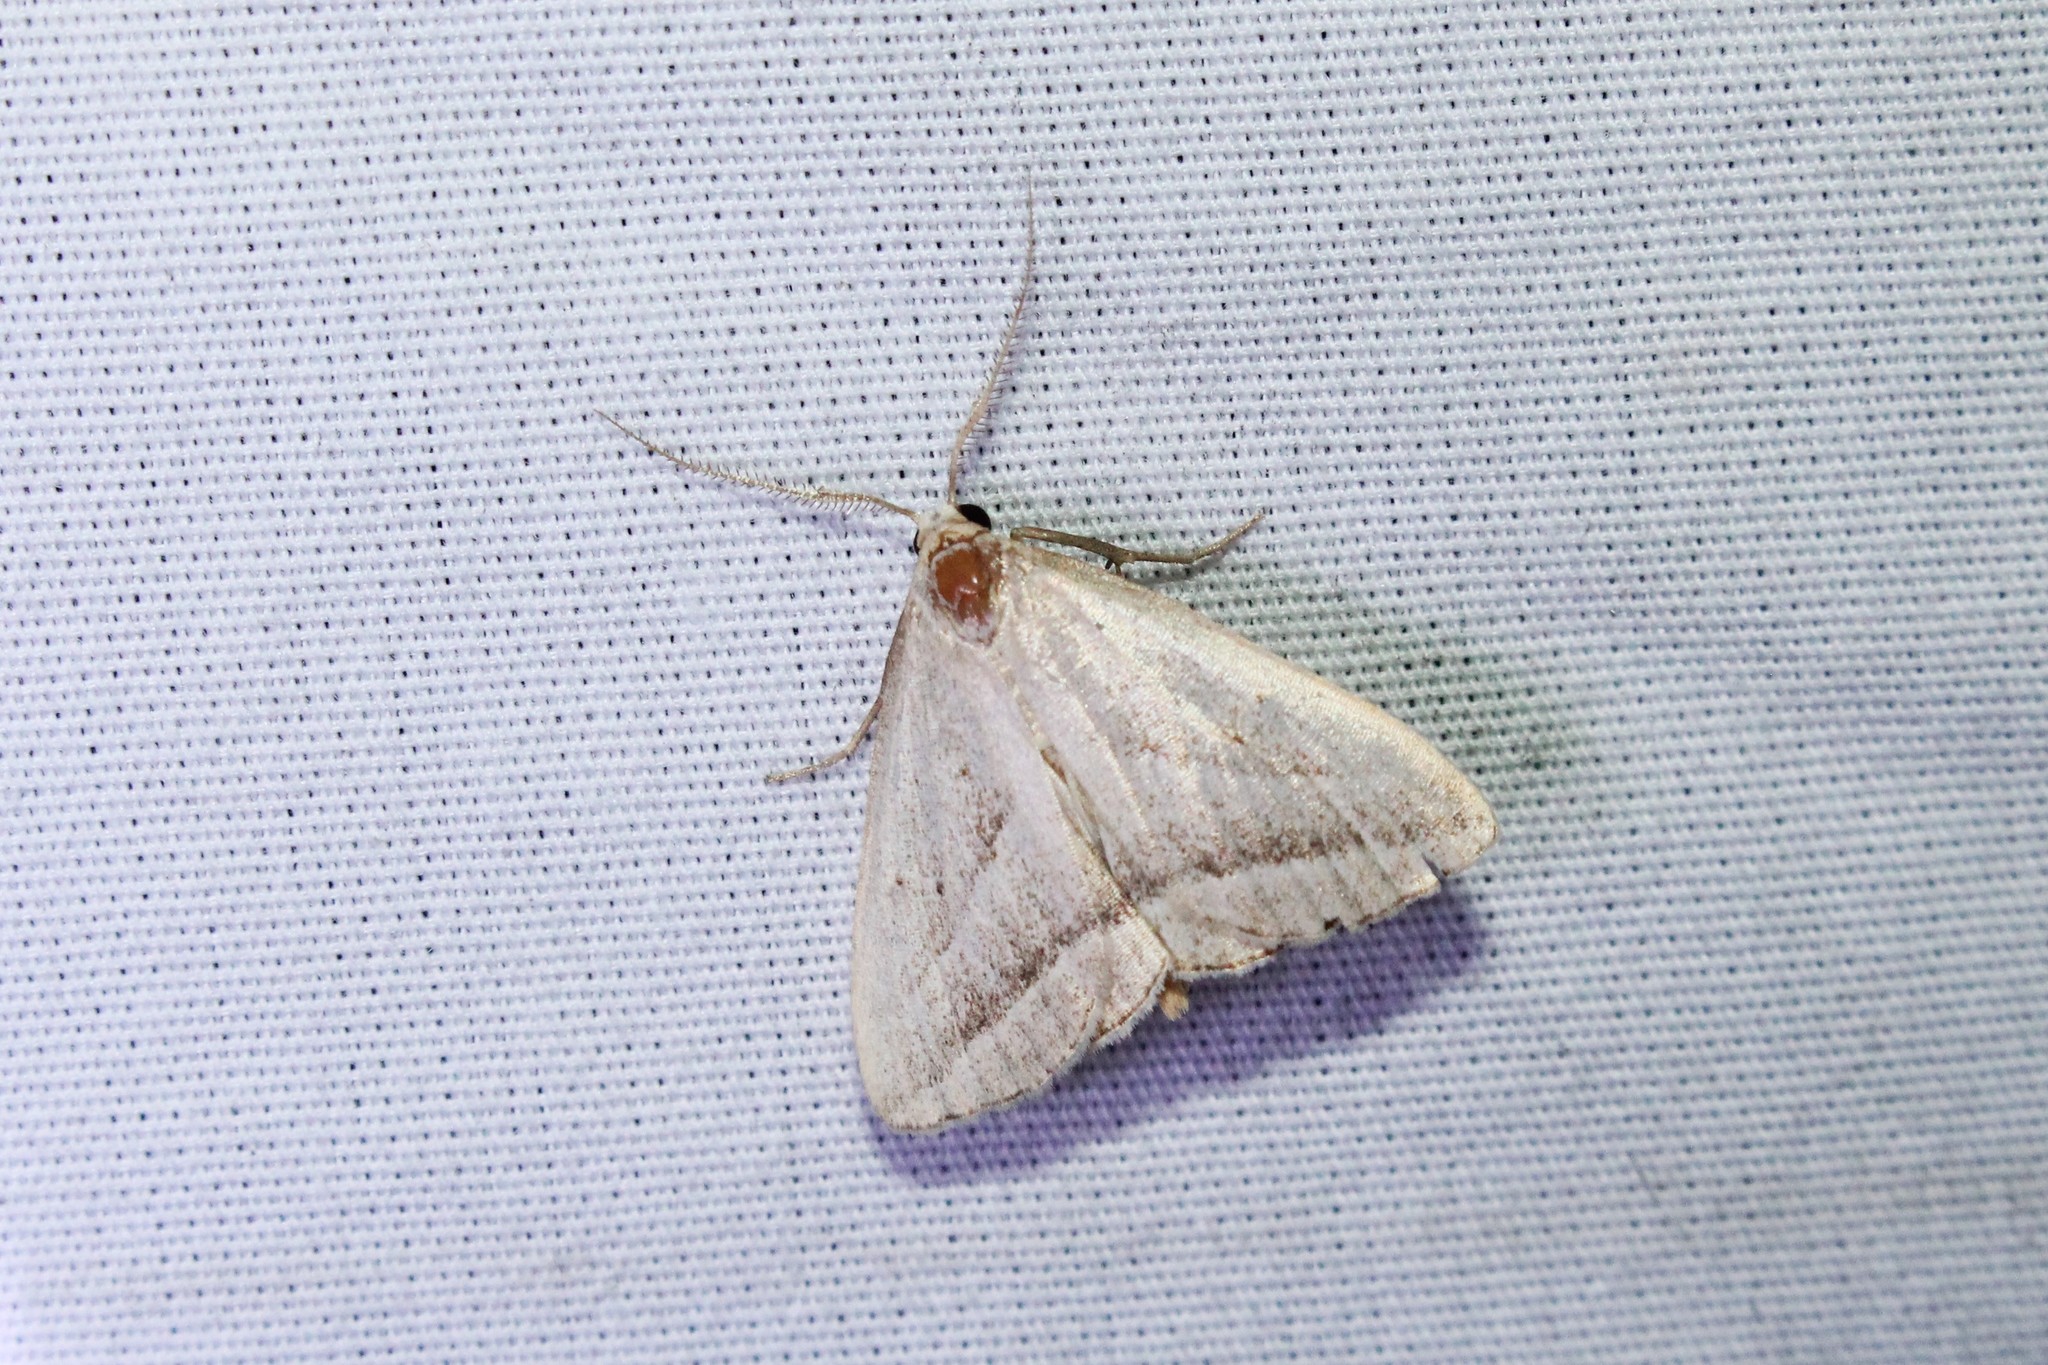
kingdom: Animalia
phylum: Arthropoda
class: Insecta
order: Lepidoptera
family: Erebidae
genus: Macrochilo
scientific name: Macrochilo absorptalis
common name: Slant-lined owlet
